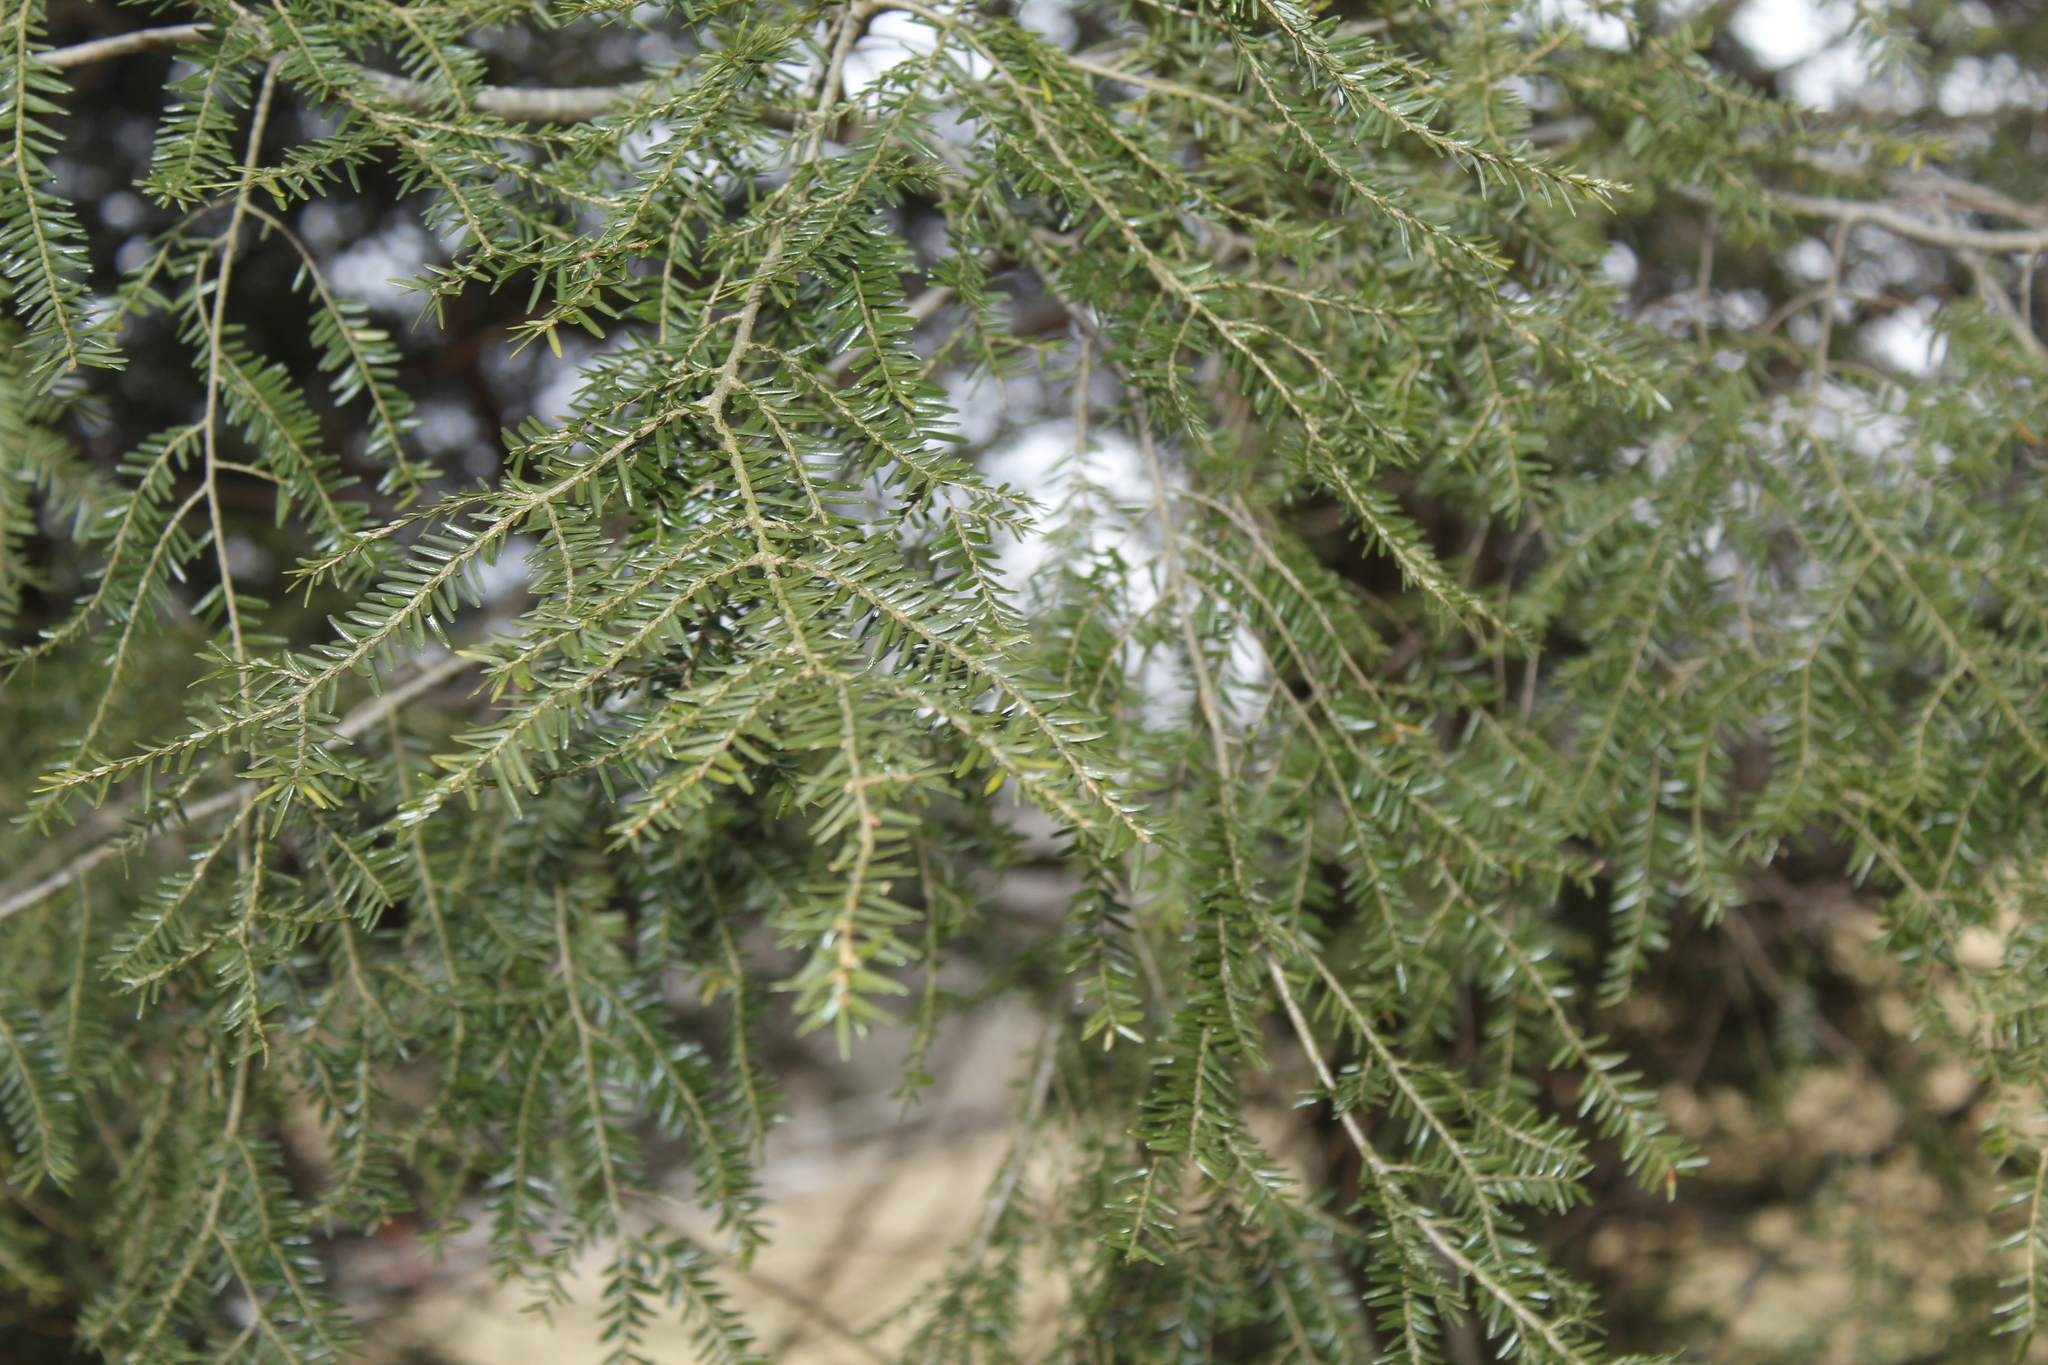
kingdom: Plantae
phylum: Tracheophyta
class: Pinopsida
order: Pinales
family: Pinaceae
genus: Tsuga
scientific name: Tsuga canadensis
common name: Eastern hemlock
